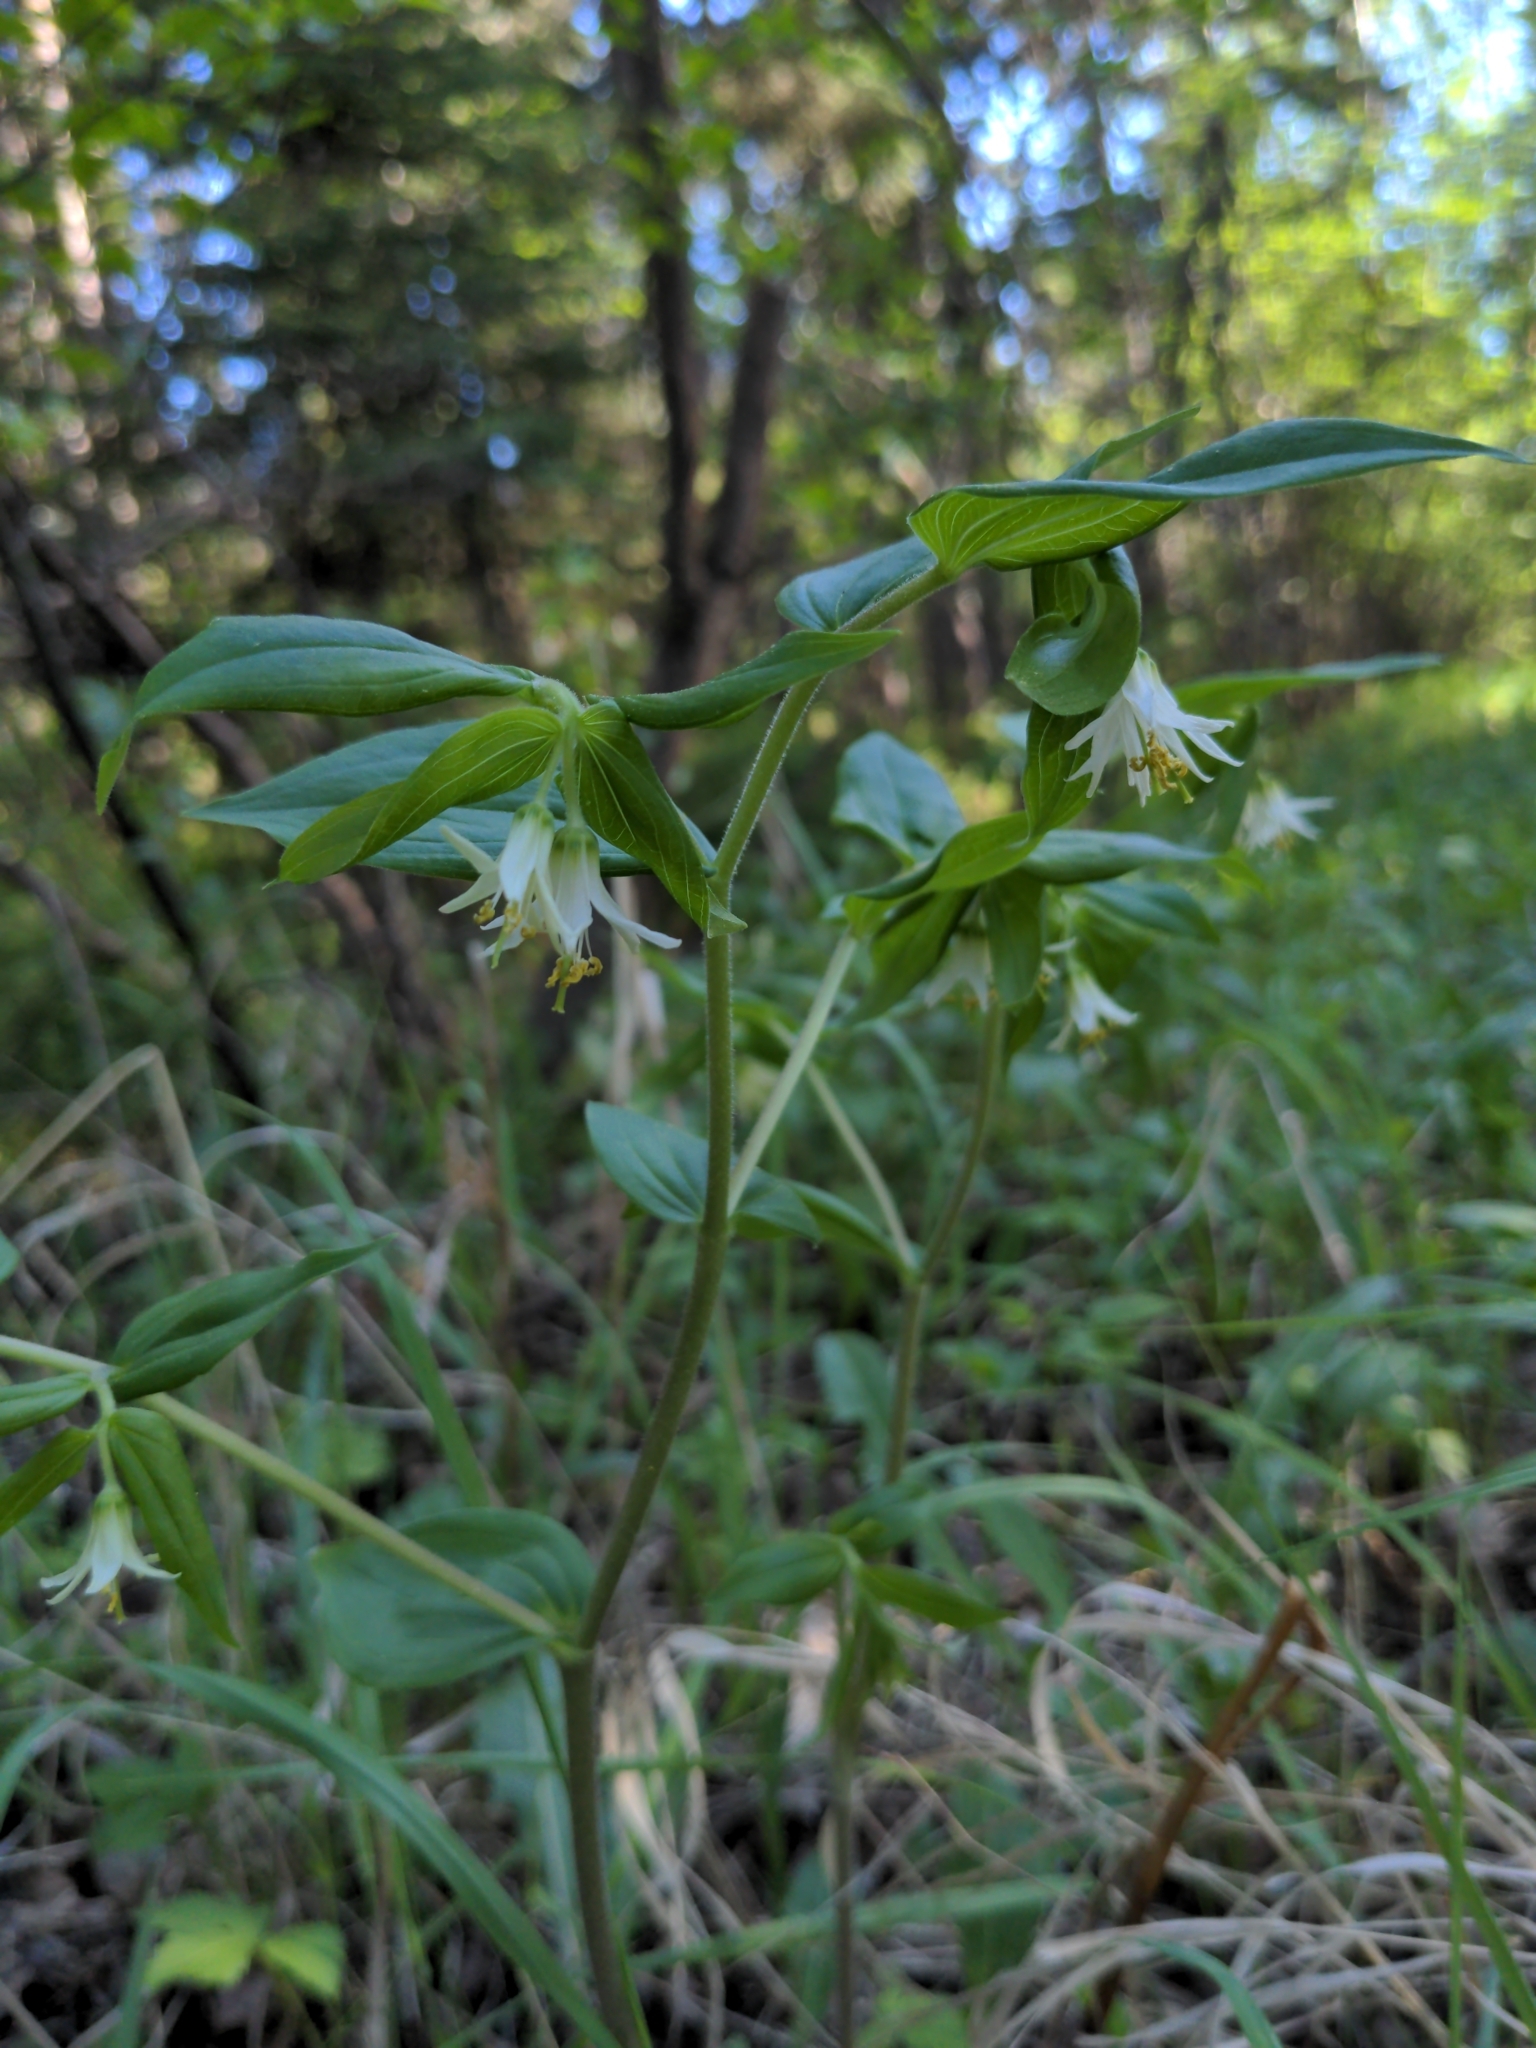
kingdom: Plantae
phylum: Tracheophyta
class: Liliopsida
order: Liliales
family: Liliaceae
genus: Prosartes
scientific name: Prosartes trachycarpa
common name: Rough-fruit fairy-bells
